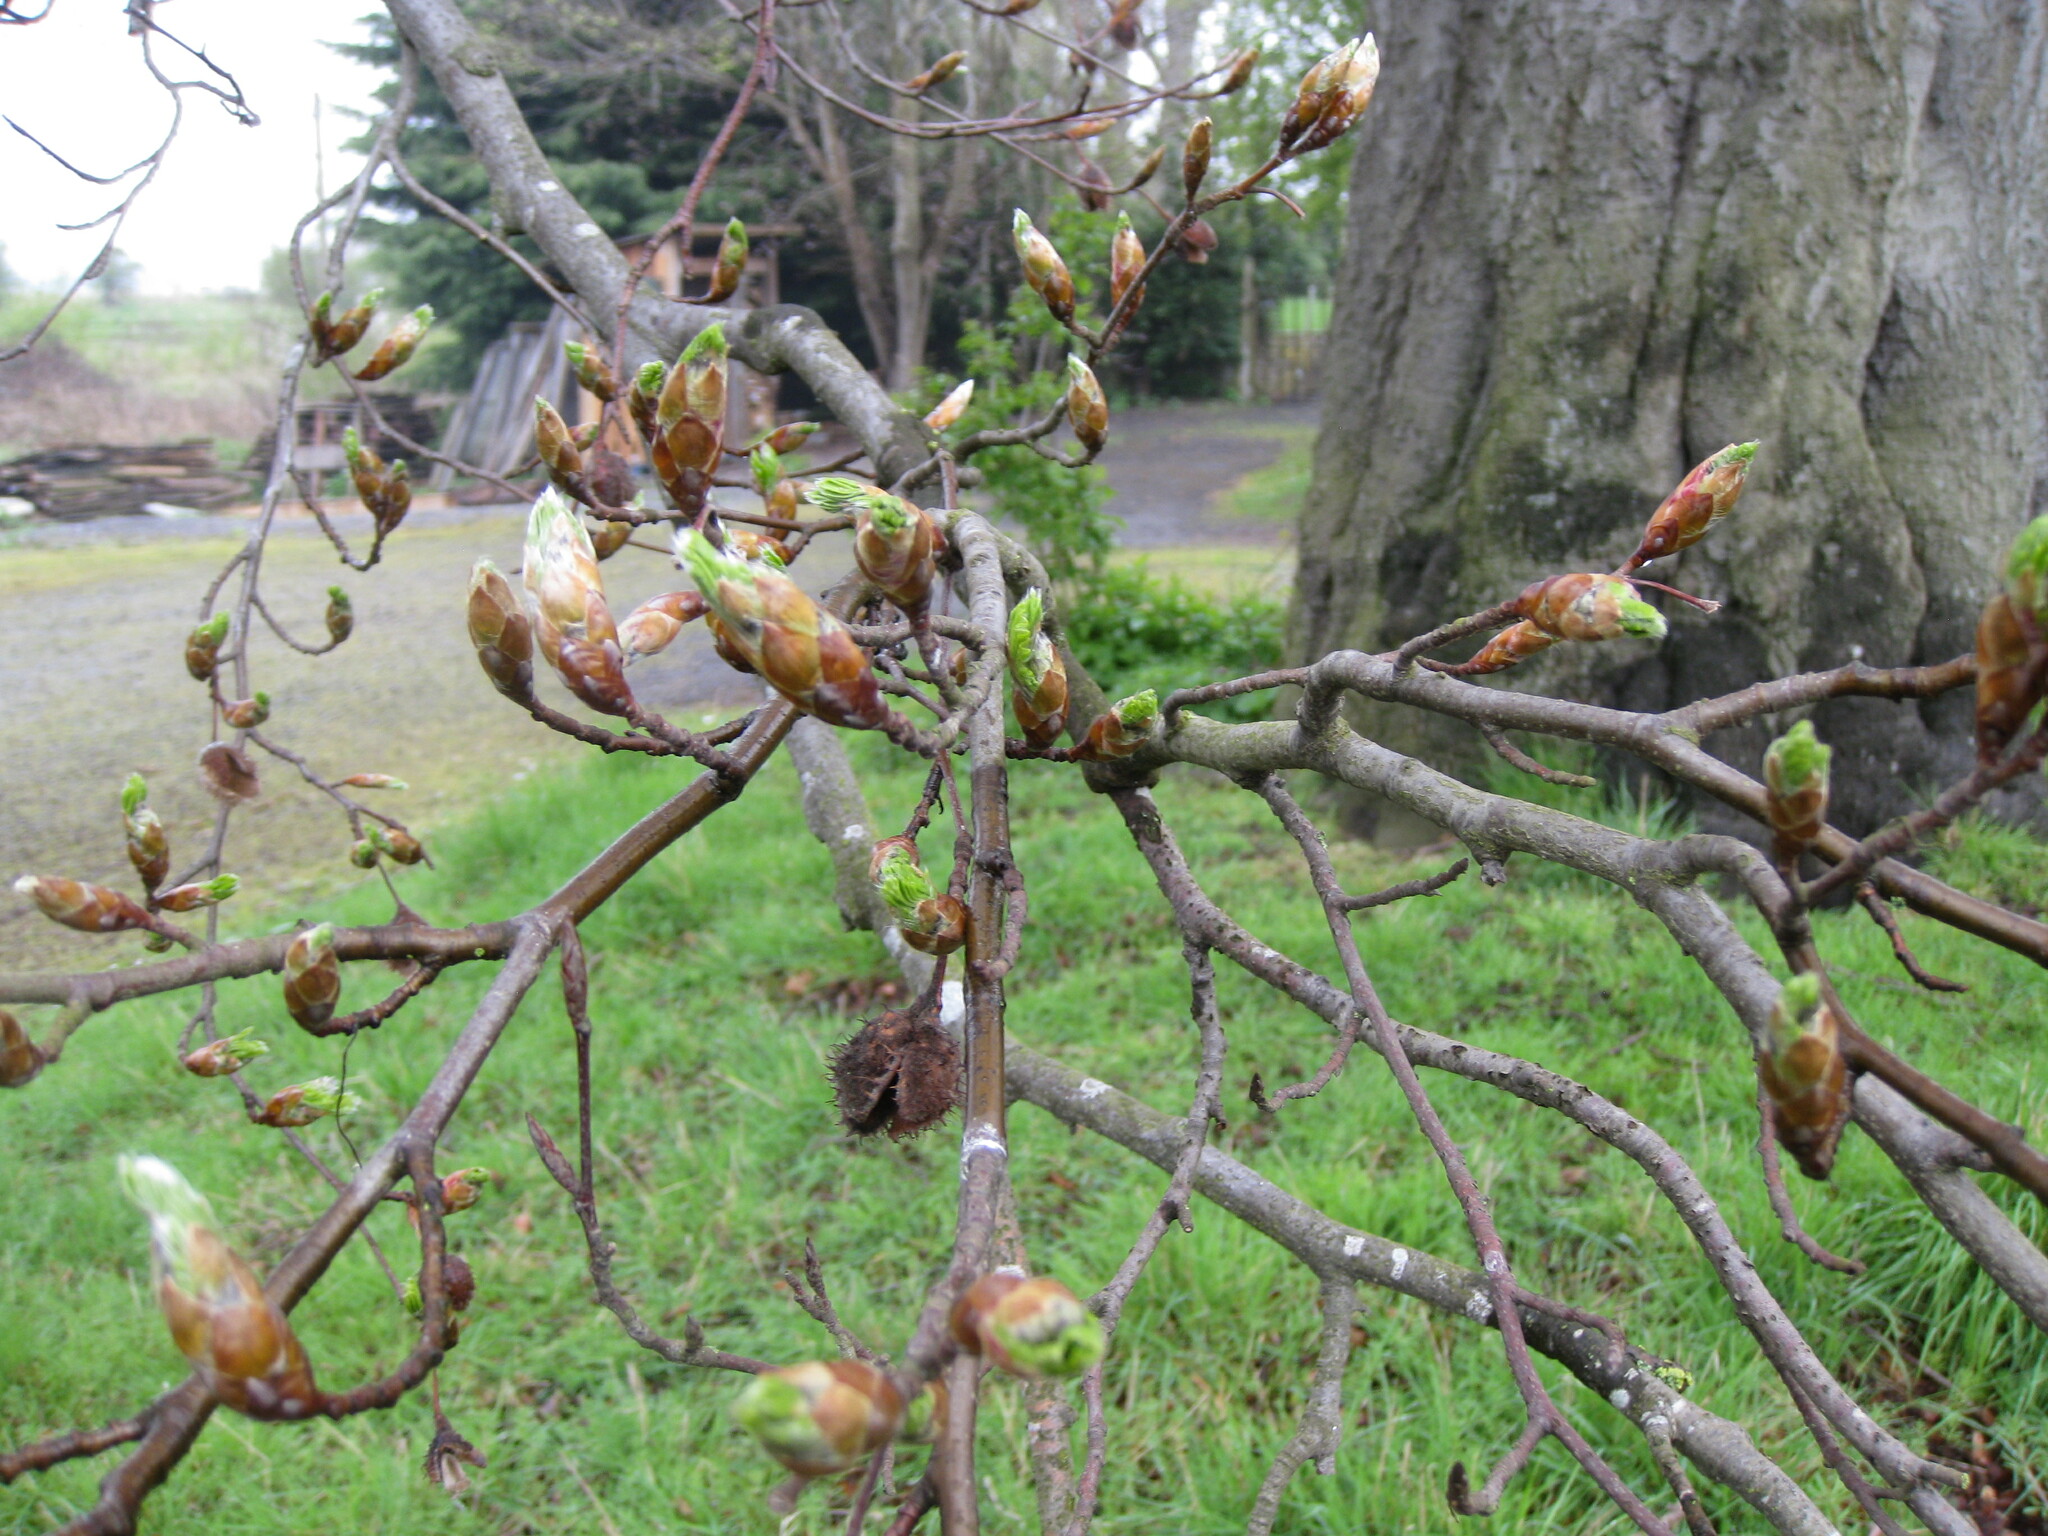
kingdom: Plantae
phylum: Tracheophyta
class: Magnoliopsida
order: Fagales
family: Fagaceae
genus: Fagus
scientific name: Fagus sylvatica
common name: Beech
